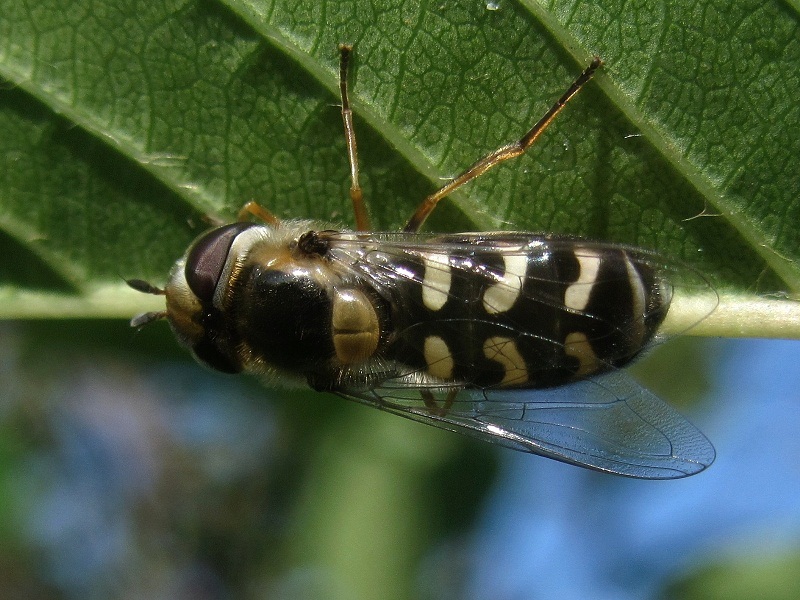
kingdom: Animalia
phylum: Arthropoda
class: Insecta
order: Diptera
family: Syrphidae
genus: Scaeva
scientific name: Scaeva pyrastri
